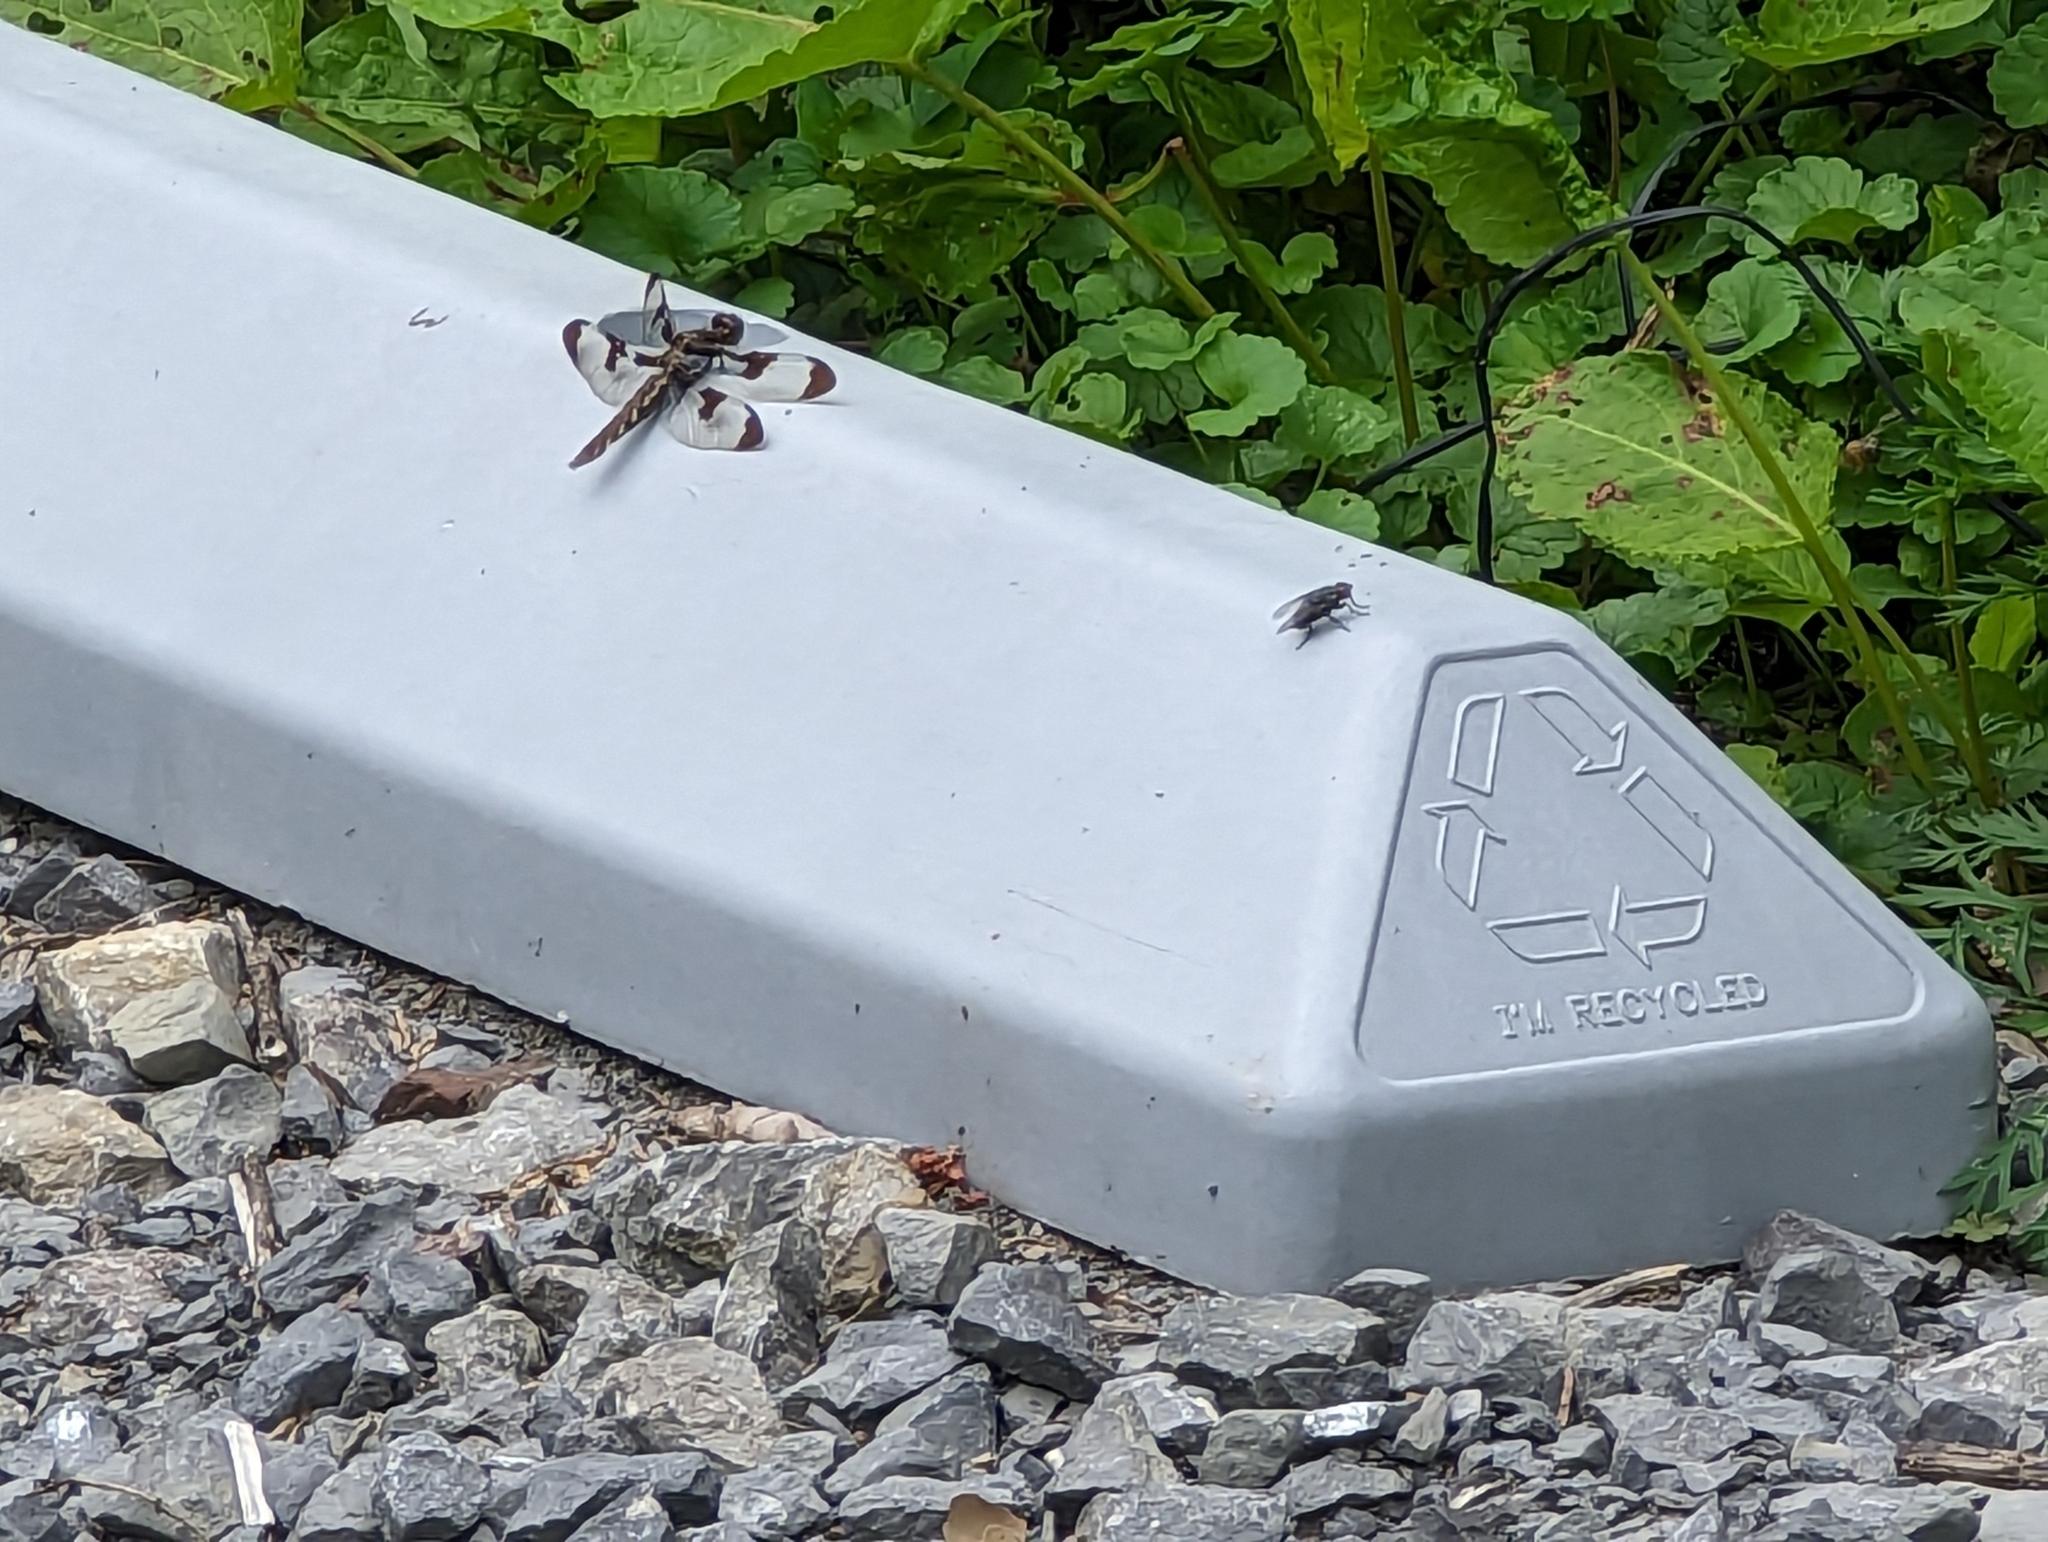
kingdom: Animalia
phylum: Arthropoda
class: Insecta
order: Odonata
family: Libellulidae
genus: Plathemis
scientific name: Plathemis lydia
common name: Common whitetail
